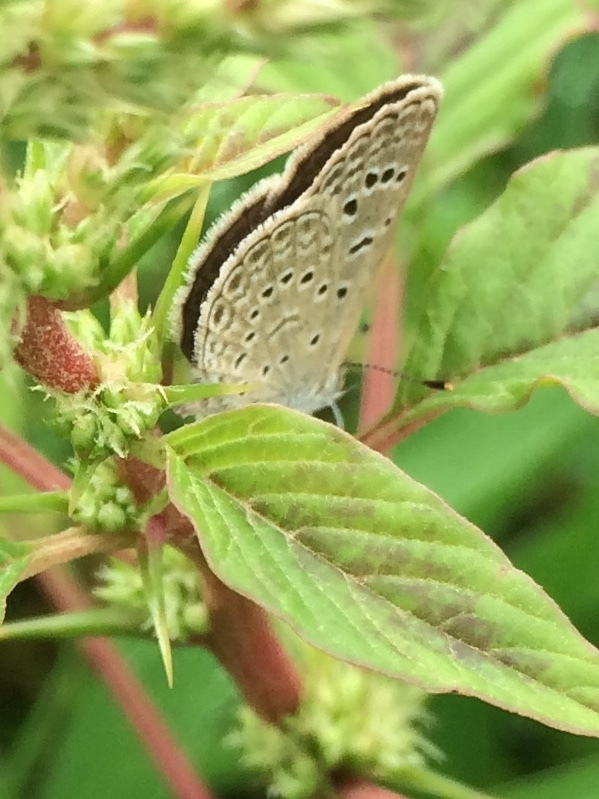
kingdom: Animalia
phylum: Arthropoda
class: Insecta
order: Lepidoptera
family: Lycaenidae
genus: Zizeeria
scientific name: Zizeeria karsandra
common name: Dark grass blue
